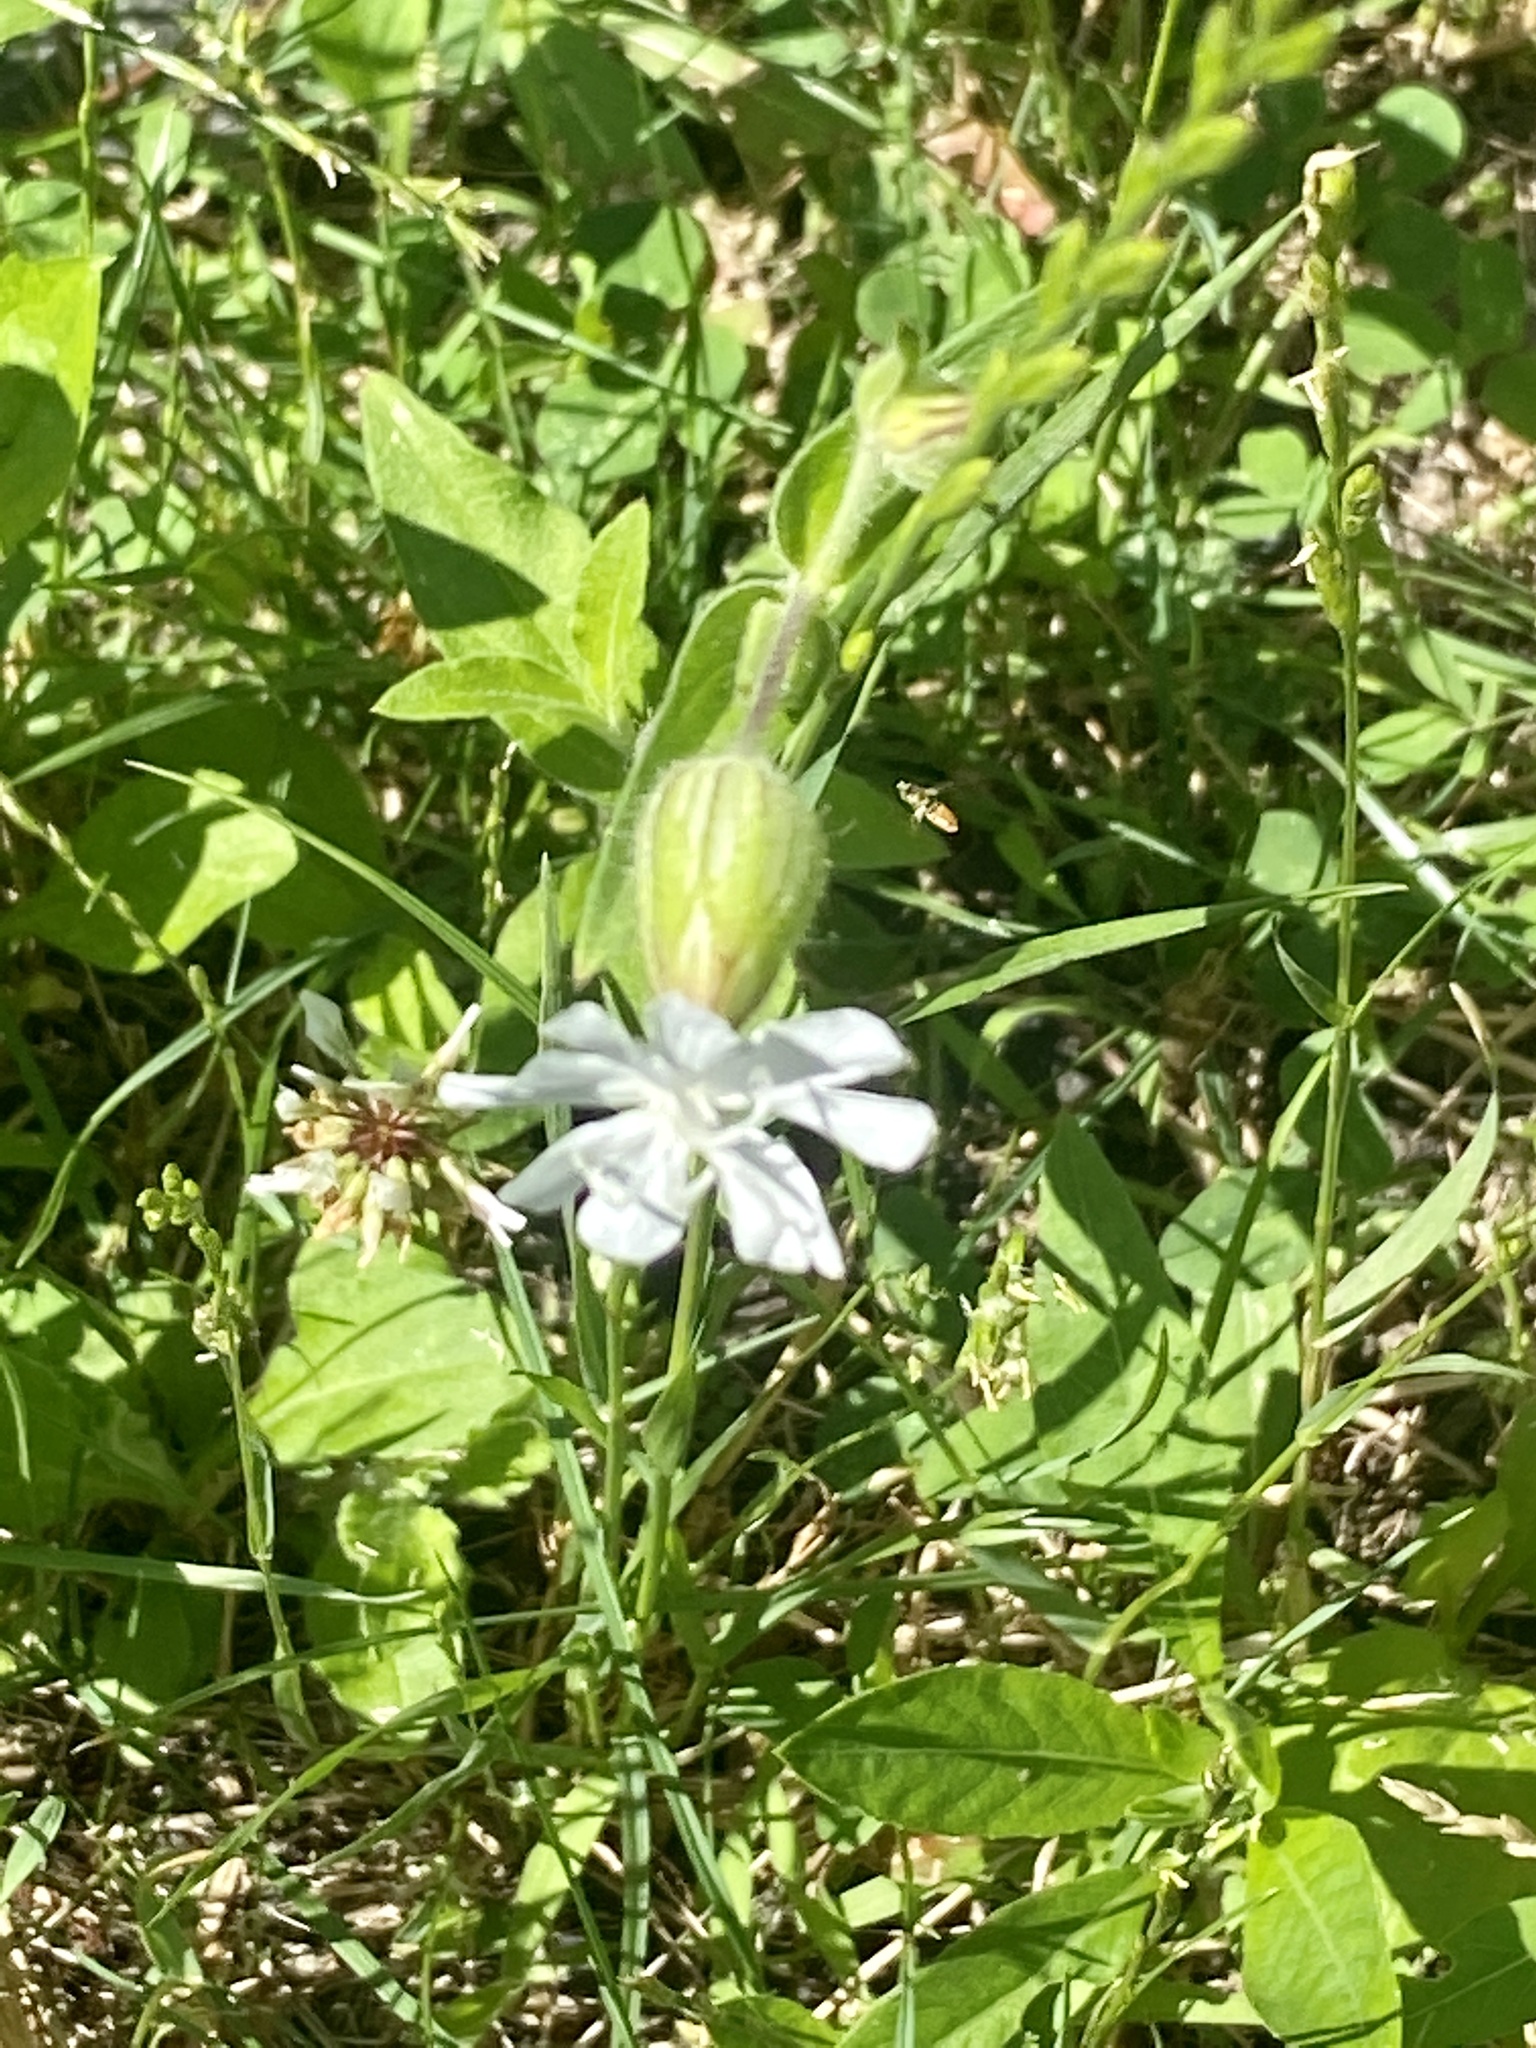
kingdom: Plantae
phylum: Tracheophyta
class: Magnoliopsida
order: Caryophyllales
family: Caryophyllaceae
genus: Silene
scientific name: Silene latifolia
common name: White campion
